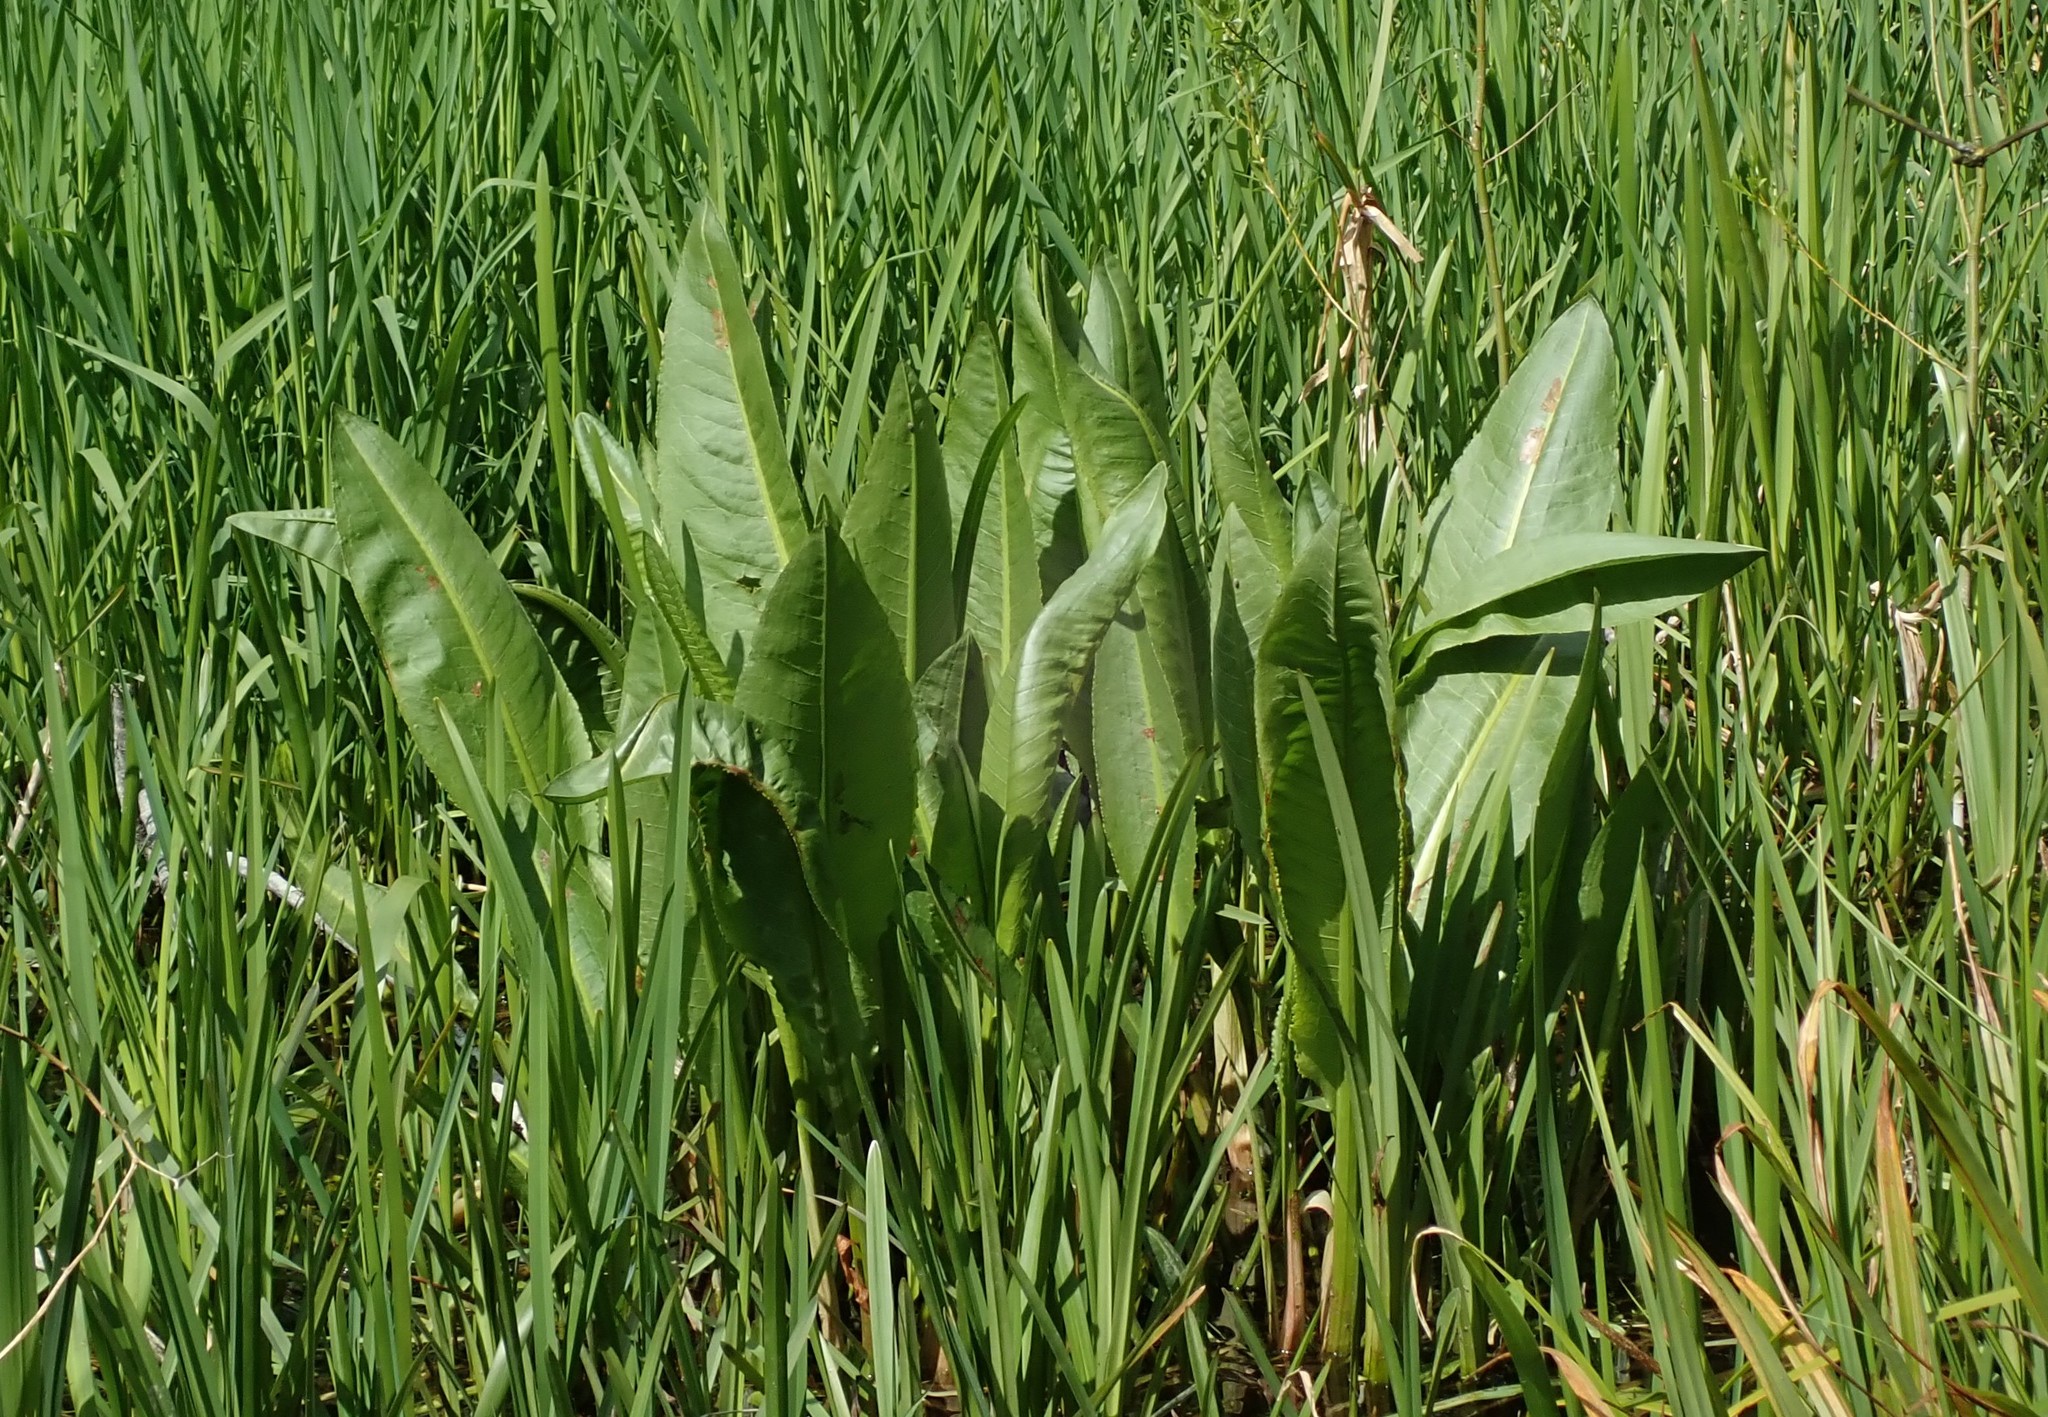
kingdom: Plantae
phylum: Tracheophyta
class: Magnoliopsida
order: Caryophyllales
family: Polygonaceae
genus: Rumex
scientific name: Rumex hydrolapathum
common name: Water dock
